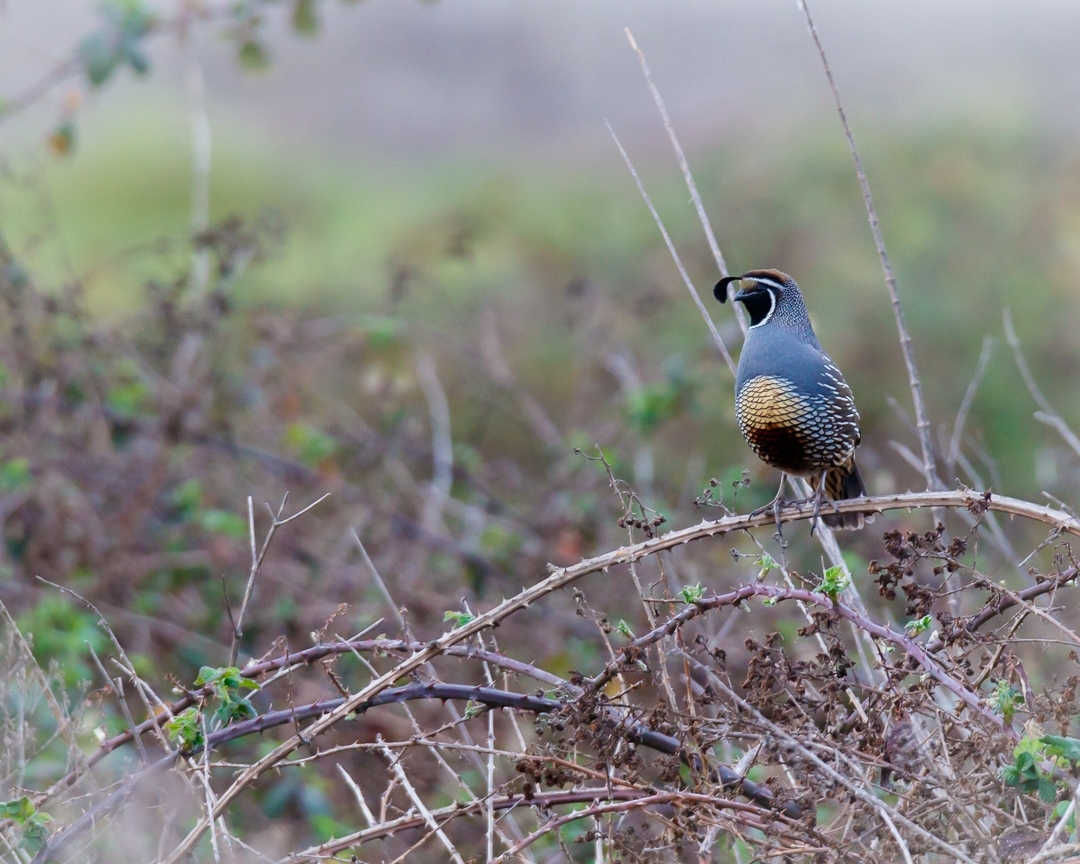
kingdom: Animalia
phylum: Chordata
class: Aves
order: Galliformes
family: Odontophoridae
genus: Callipepla
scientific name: Callipepla californica
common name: California quail
